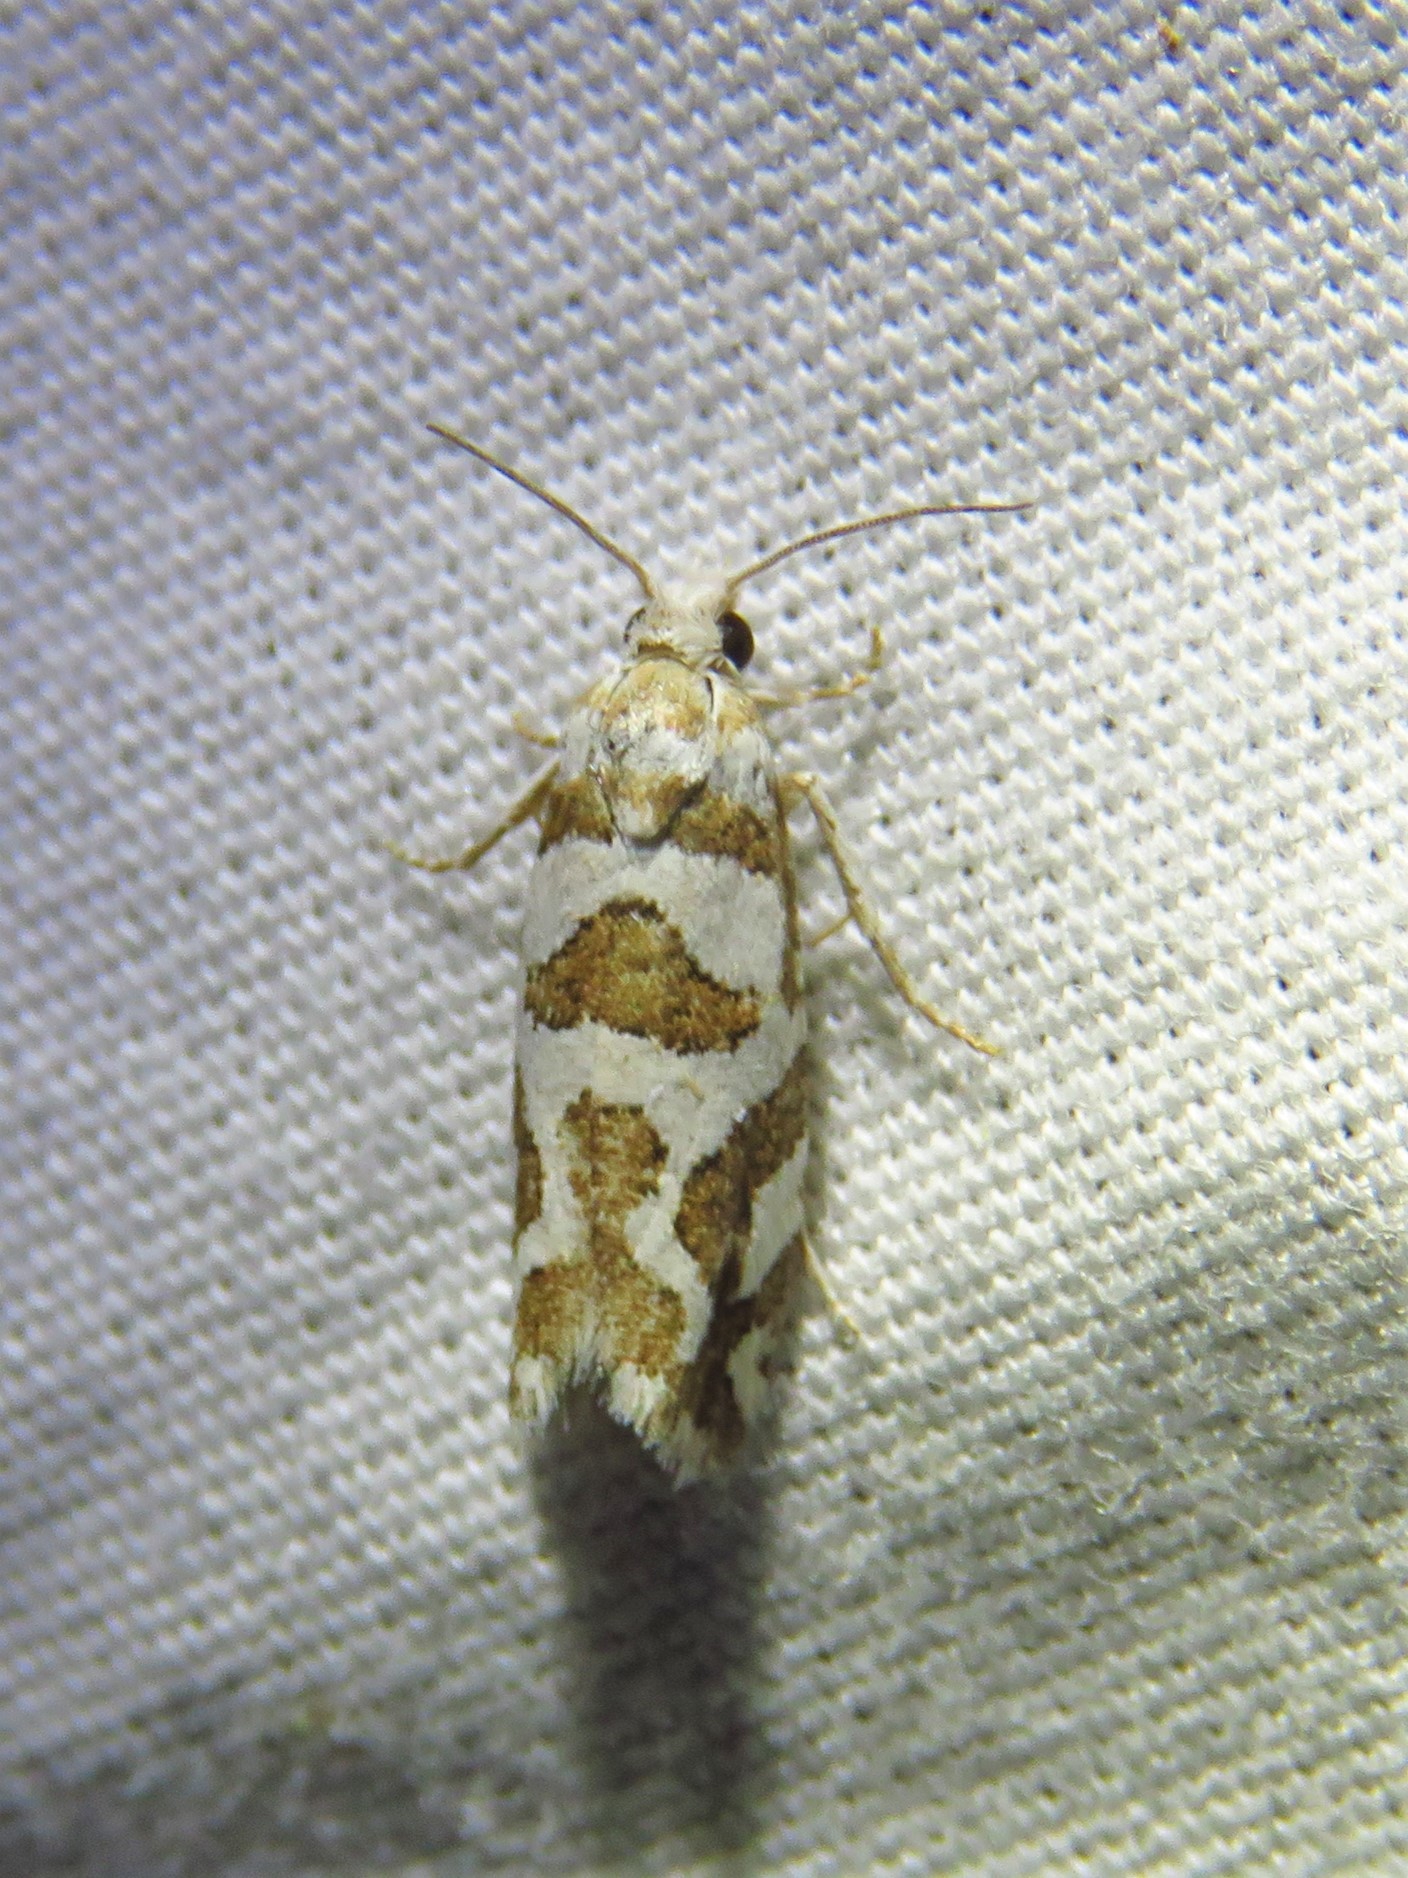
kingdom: Animalia
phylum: Arthropoda
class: Insecta
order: Lepidoptera
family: Tortricidae
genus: Pelochrista
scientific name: Pelochrista bolanderana
